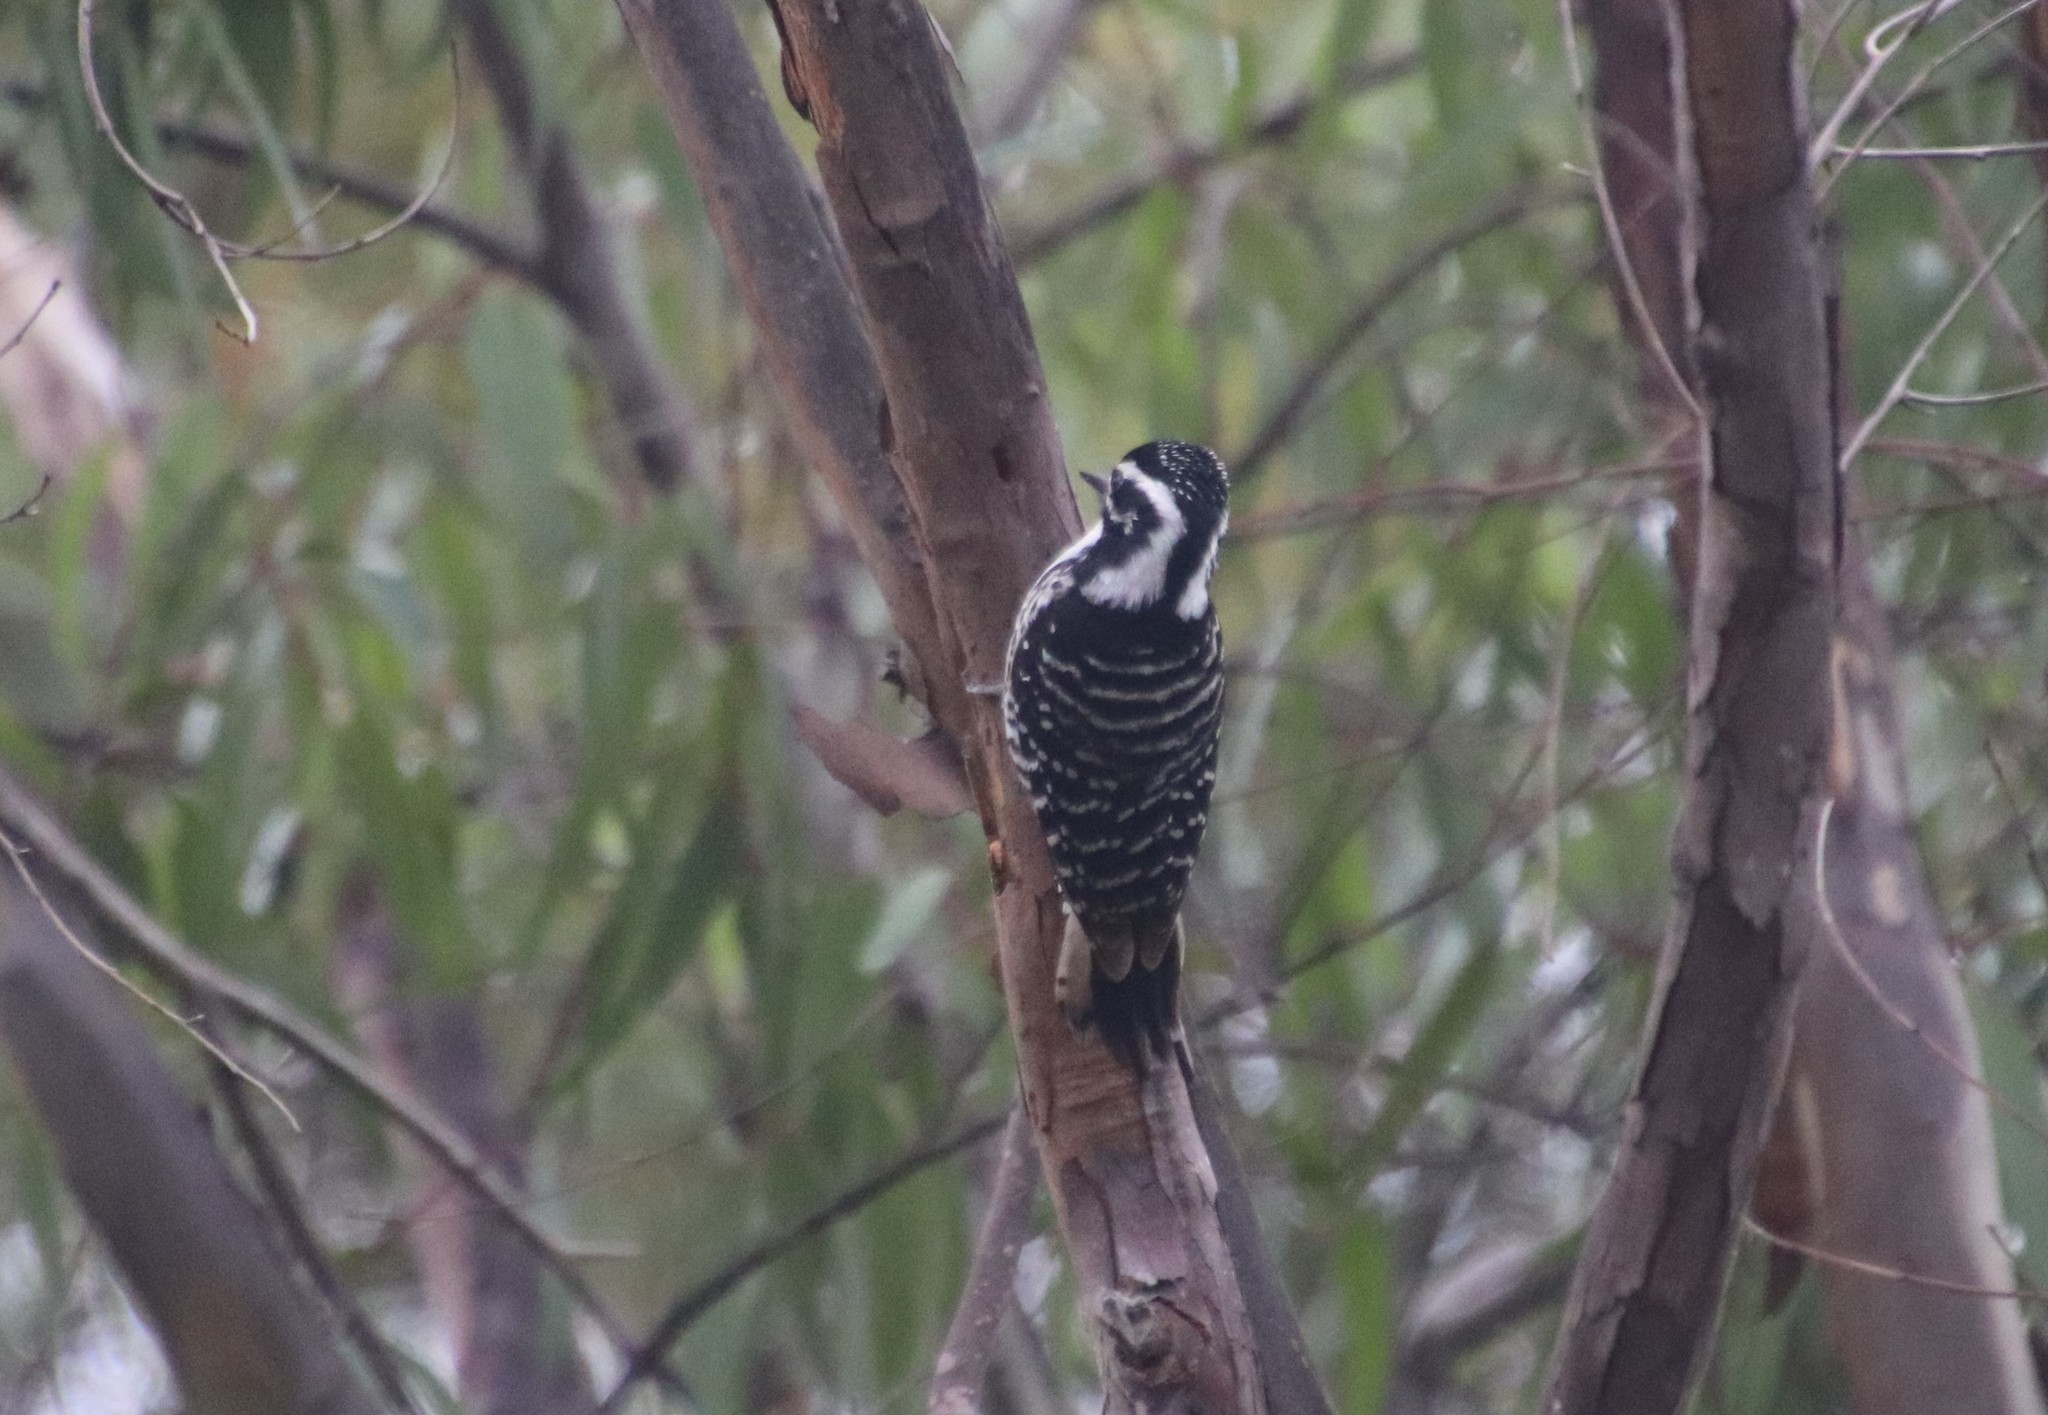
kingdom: Animalia
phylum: Chordata
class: Aves
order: Piciformes
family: Picidae
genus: Dryobates
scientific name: Dryobates nuttallii
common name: Nuttall's woodpecker
